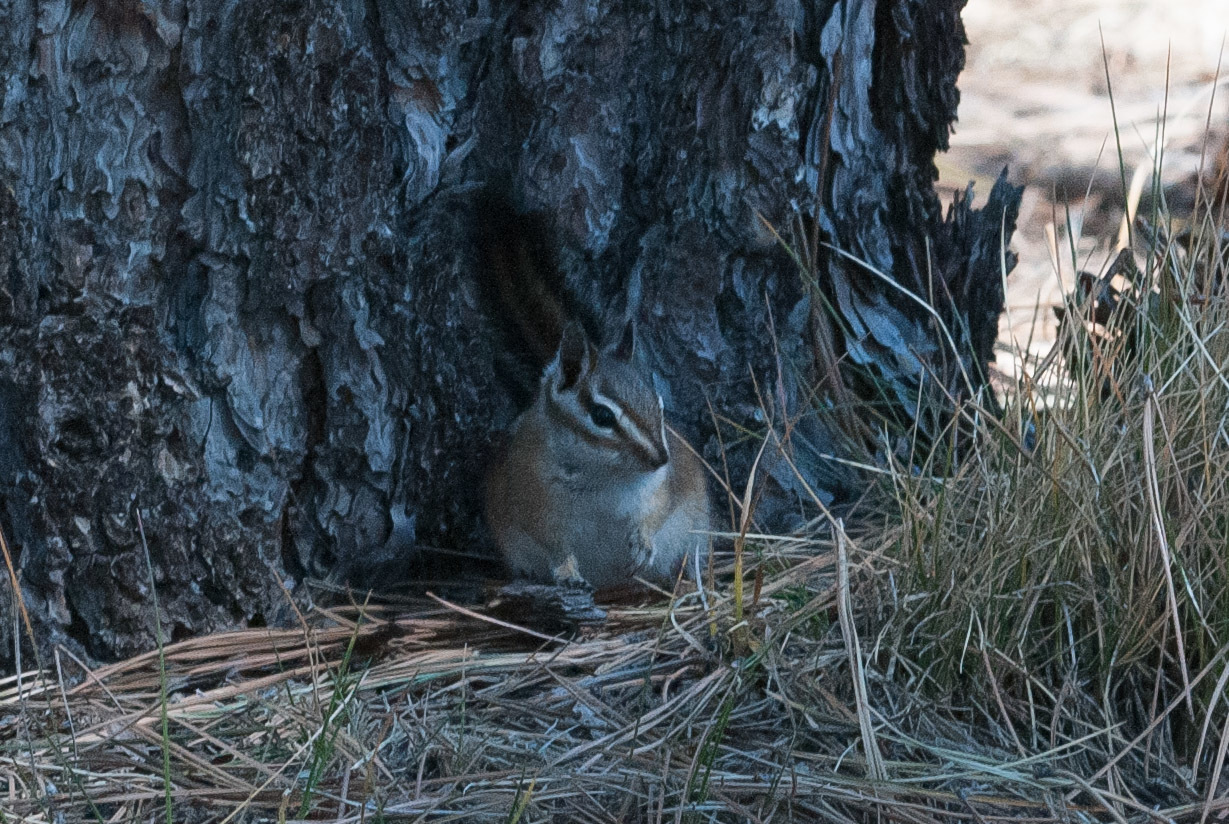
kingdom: Animalia
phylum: Chordata
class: Mammalia
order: Rodentia
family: Sciuridae
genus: Tamias
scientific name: Tamias minimus
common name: Least chipmunk
